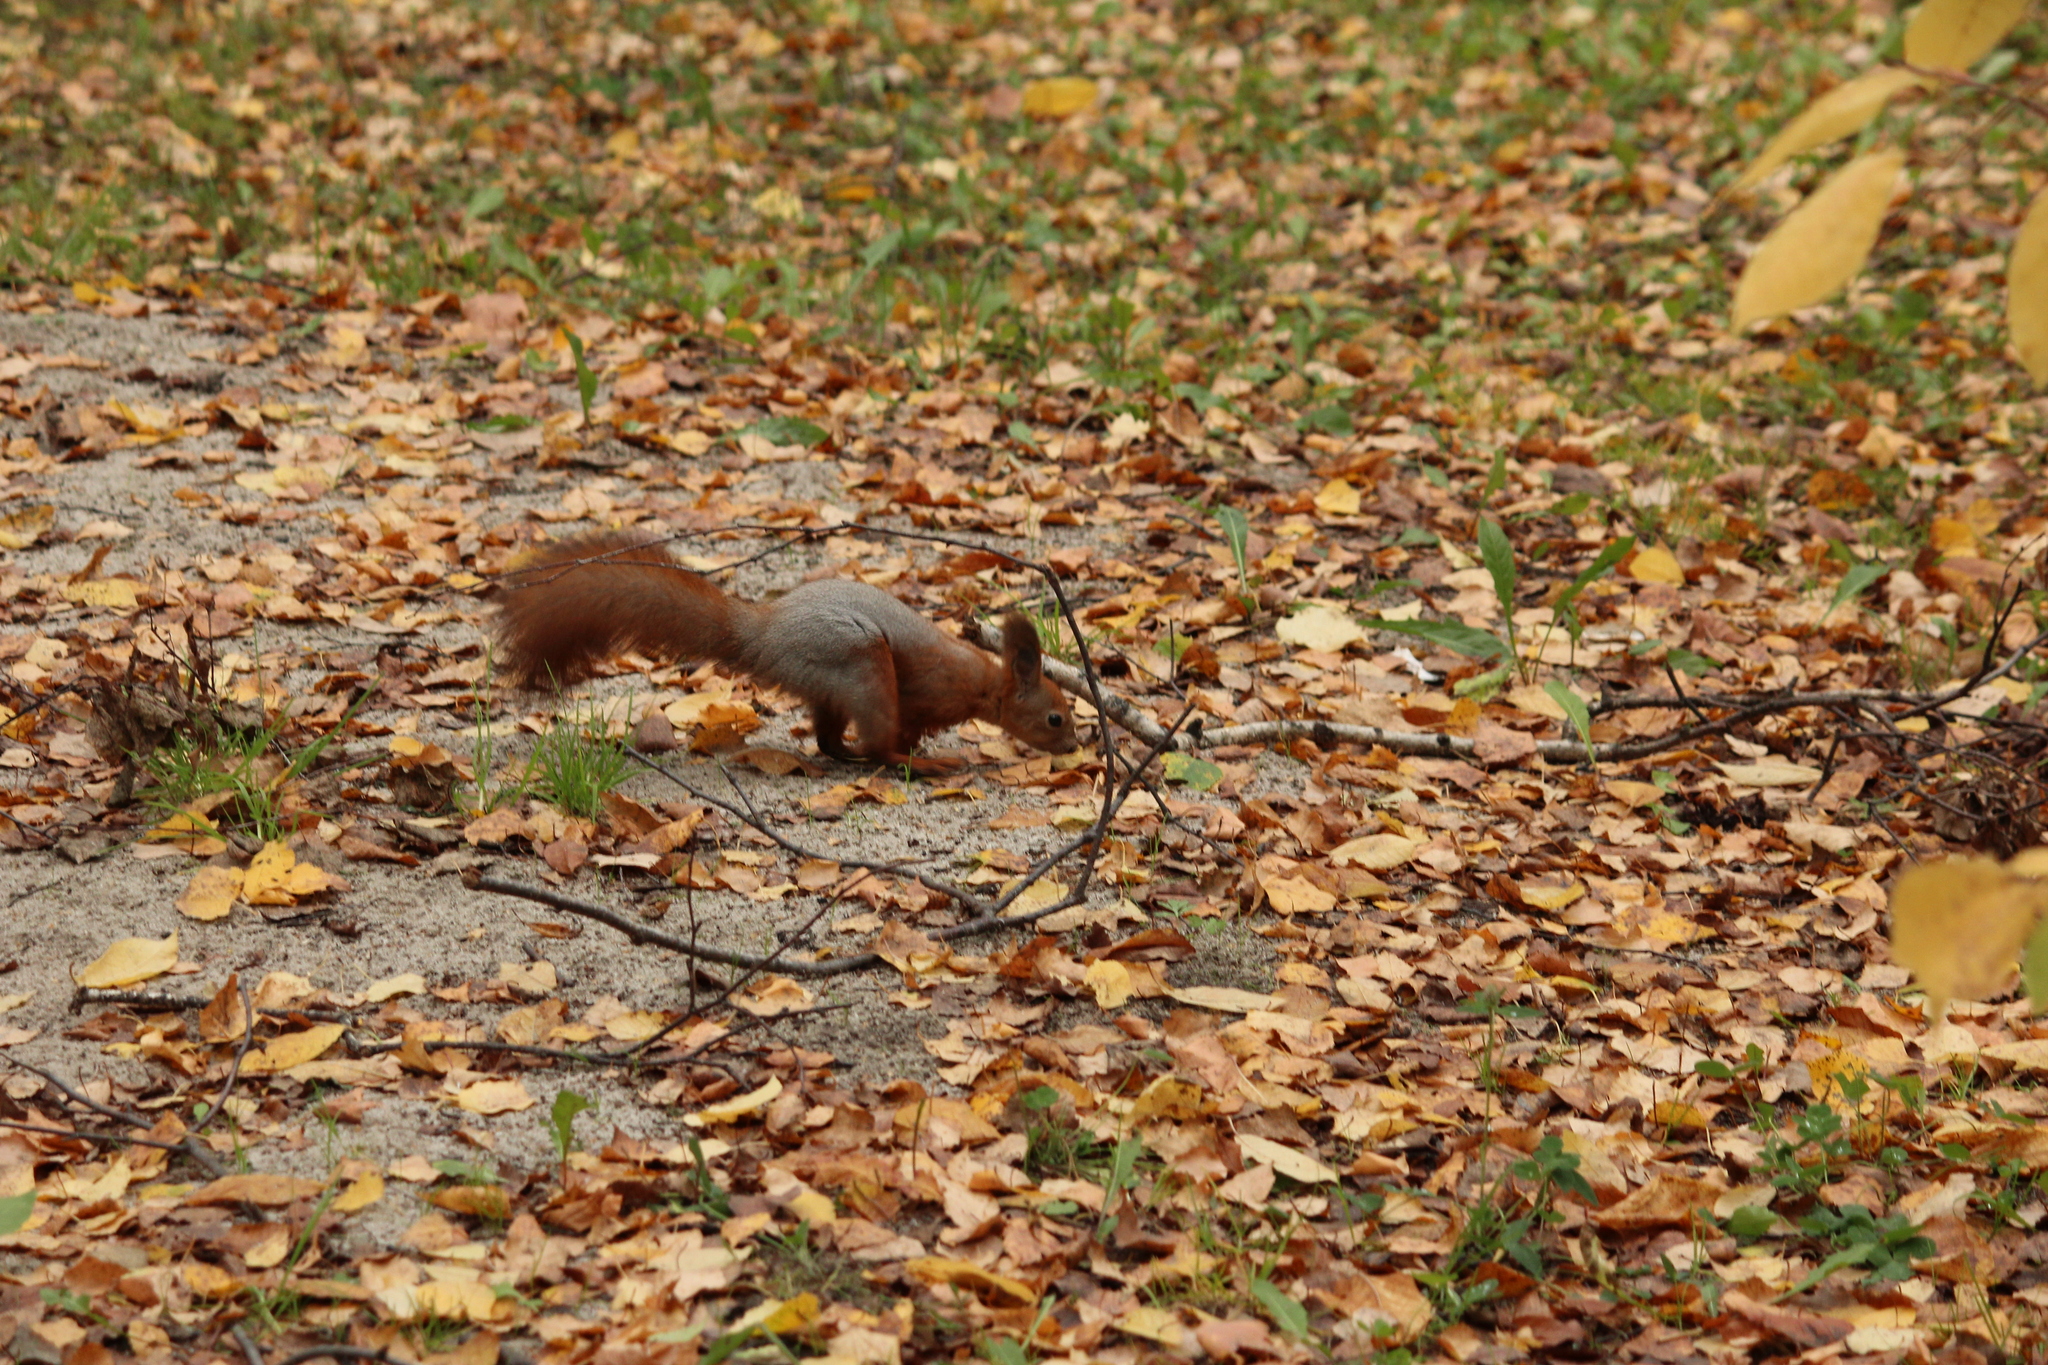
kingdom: Animalia
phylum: Chordata
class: Mammalia
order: Rodentia
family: Sciuridae
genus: Sciurus
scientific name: Sciurus vulgaris
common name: Eurasian red squirrel
